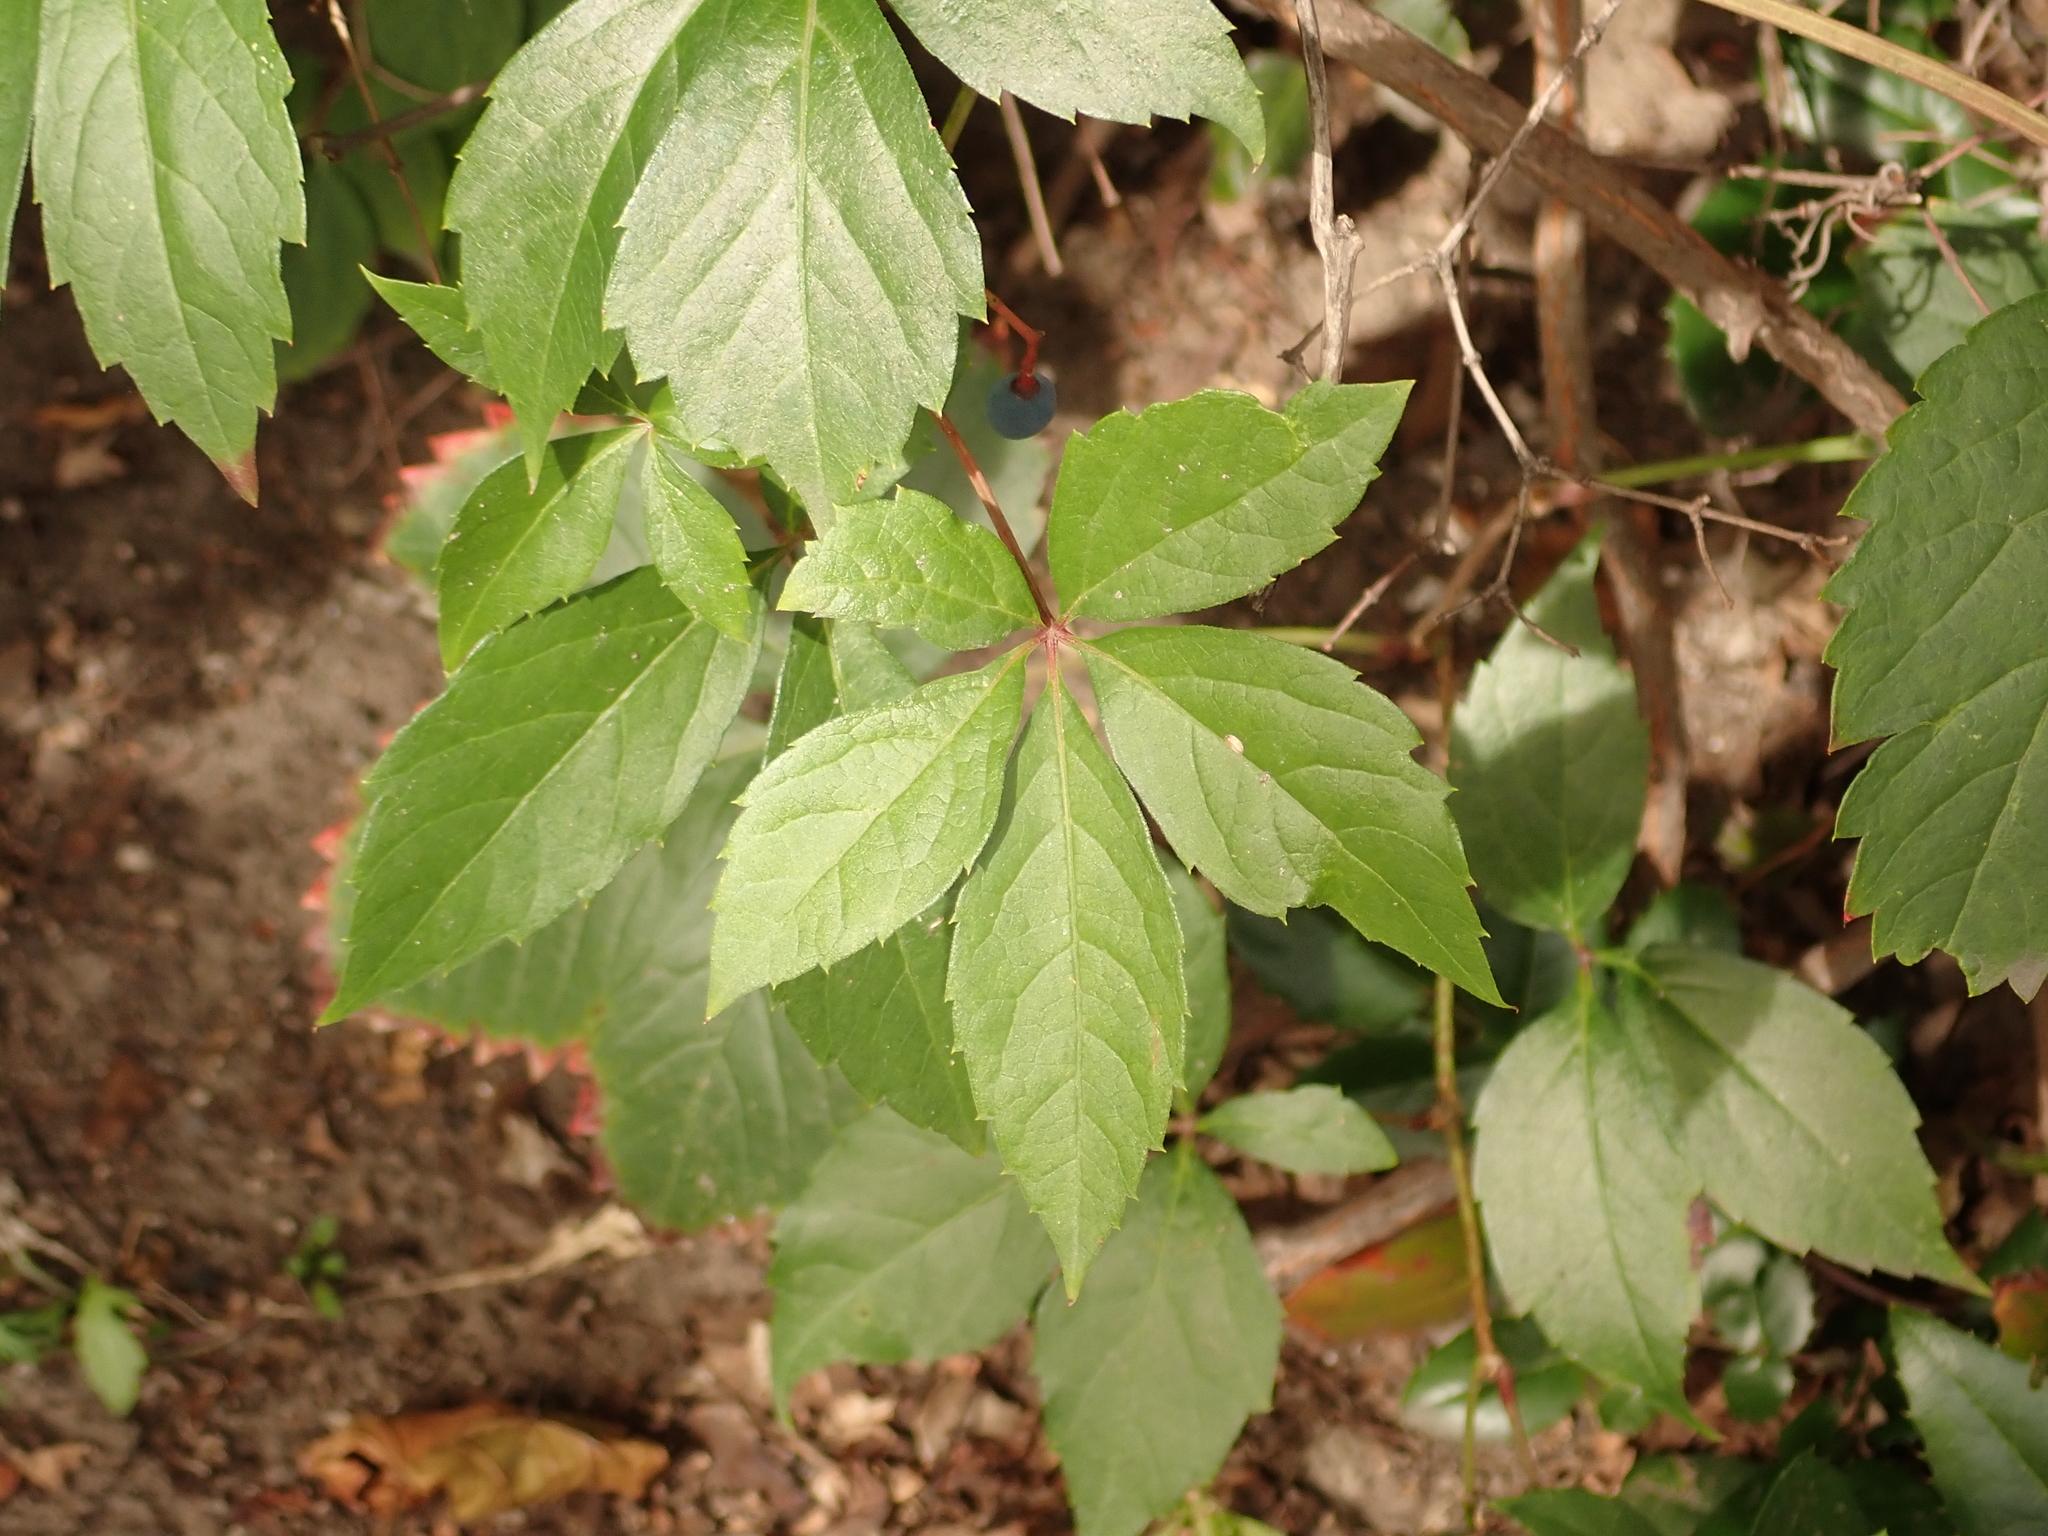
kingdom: Plantae
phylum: Tracheophyta
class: Magnoliopsida
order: Vitales
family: Vitaceae
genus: Parthenocissus
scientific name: Parthenocissus quinquefolia
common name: Virginia-creeper
